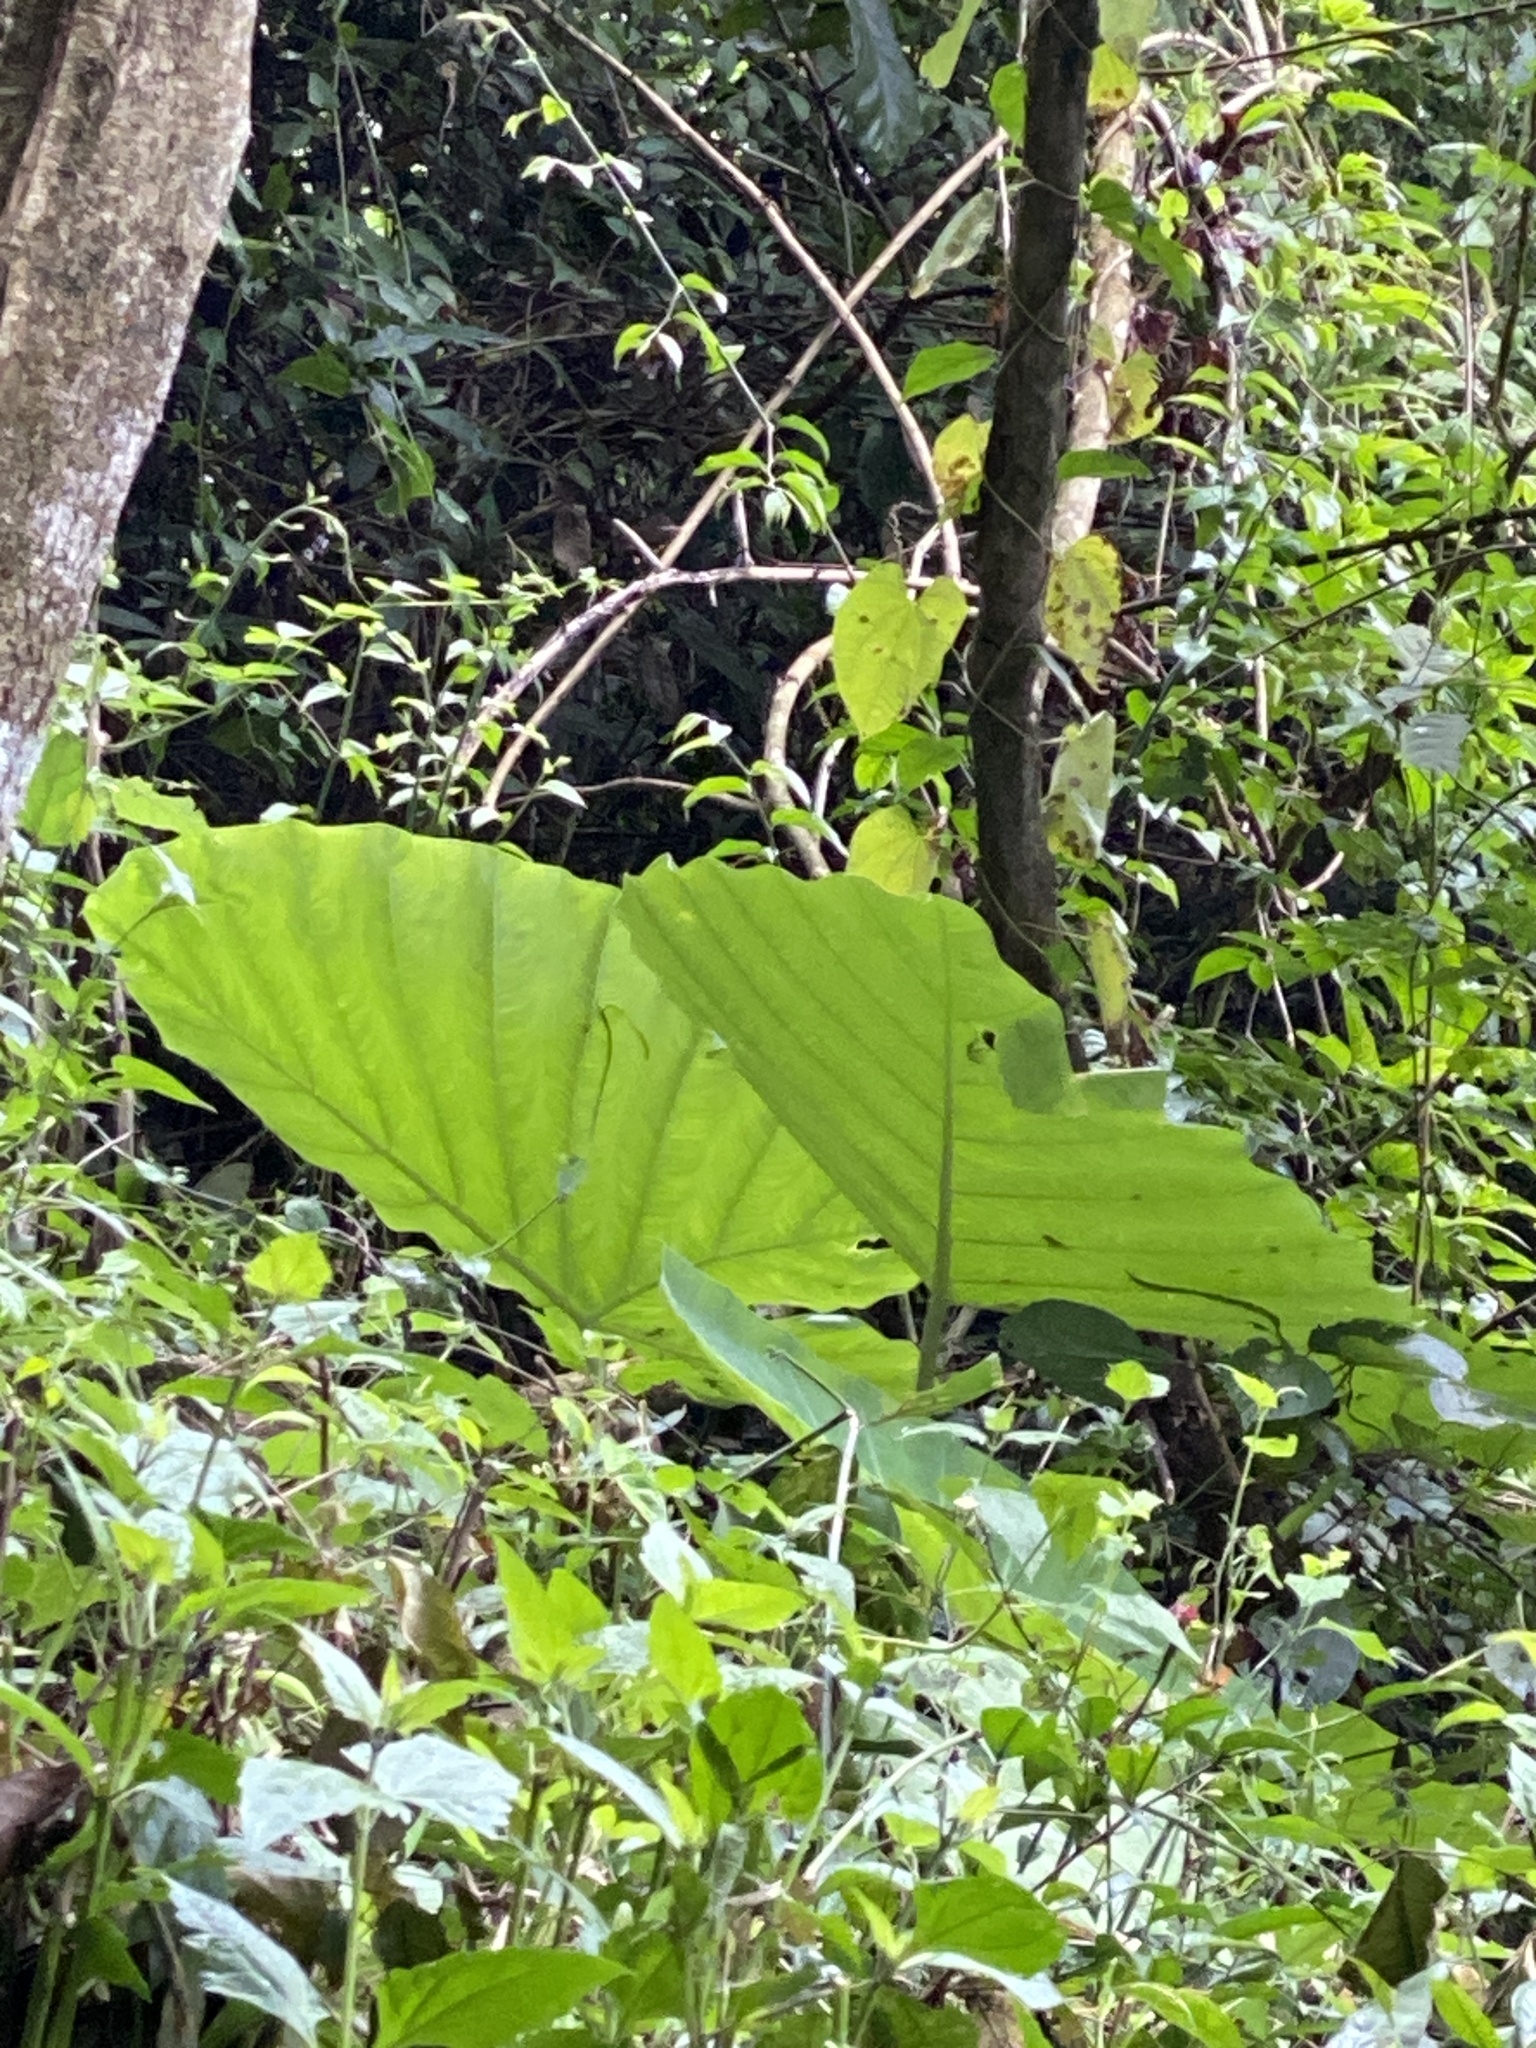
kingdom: Plantae
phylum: Tracheophyta
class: Liliopsida
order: Alismatales
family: Araceae
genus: Leucocasia
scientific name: Leucocasia gigantea
